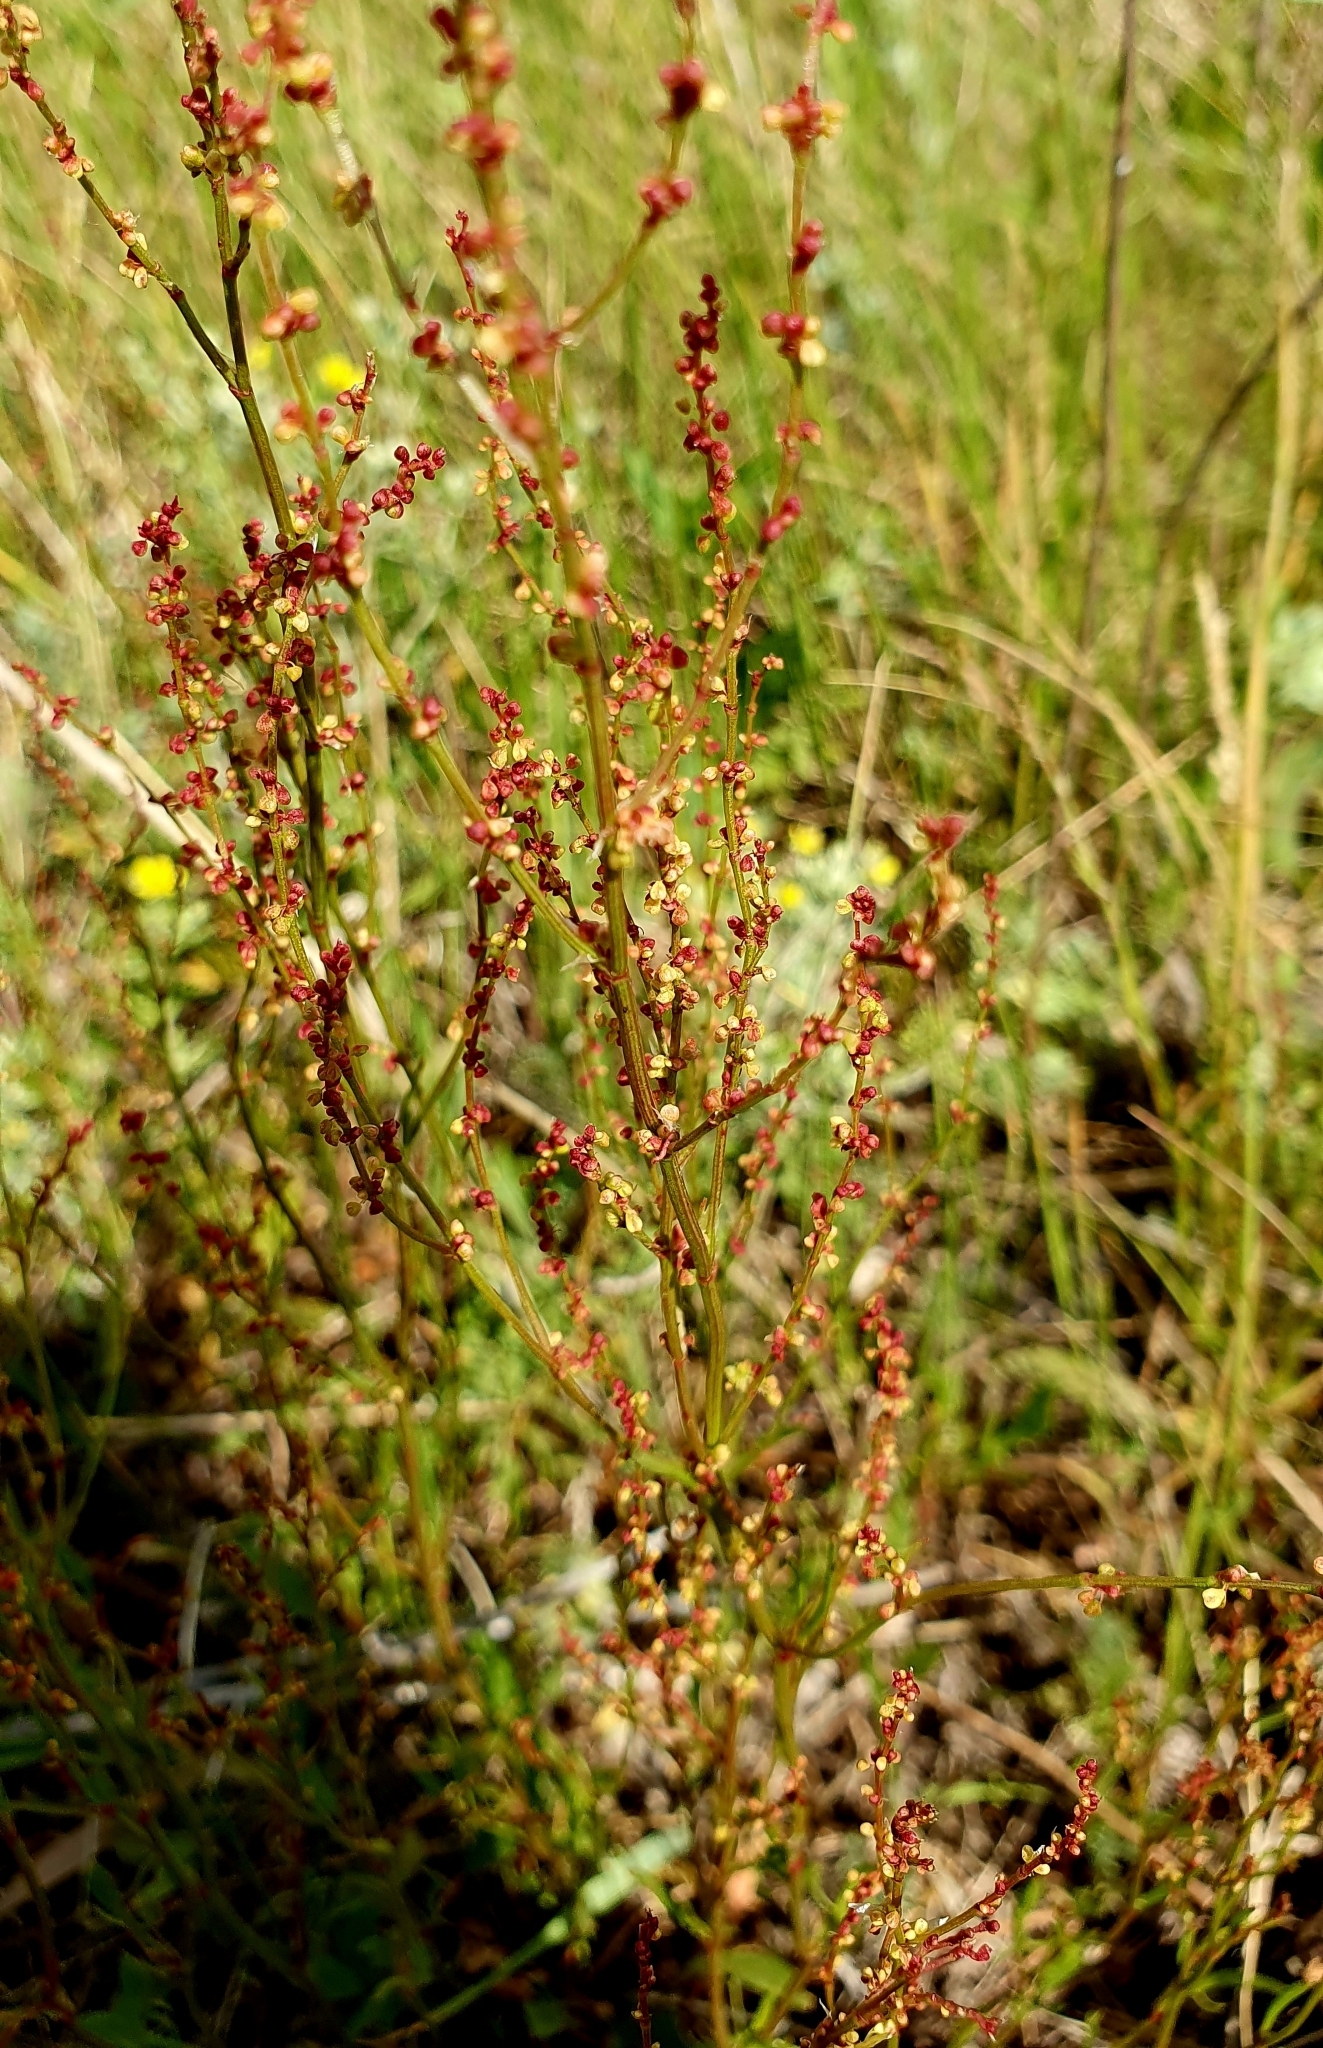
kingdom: Plantae
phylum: Tracheophyta
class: Magnoliopsida
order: Caryophyllales
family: Polygonaceae
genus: Rumex
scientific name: Rumex acetosella
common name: Common sheep sorrel
